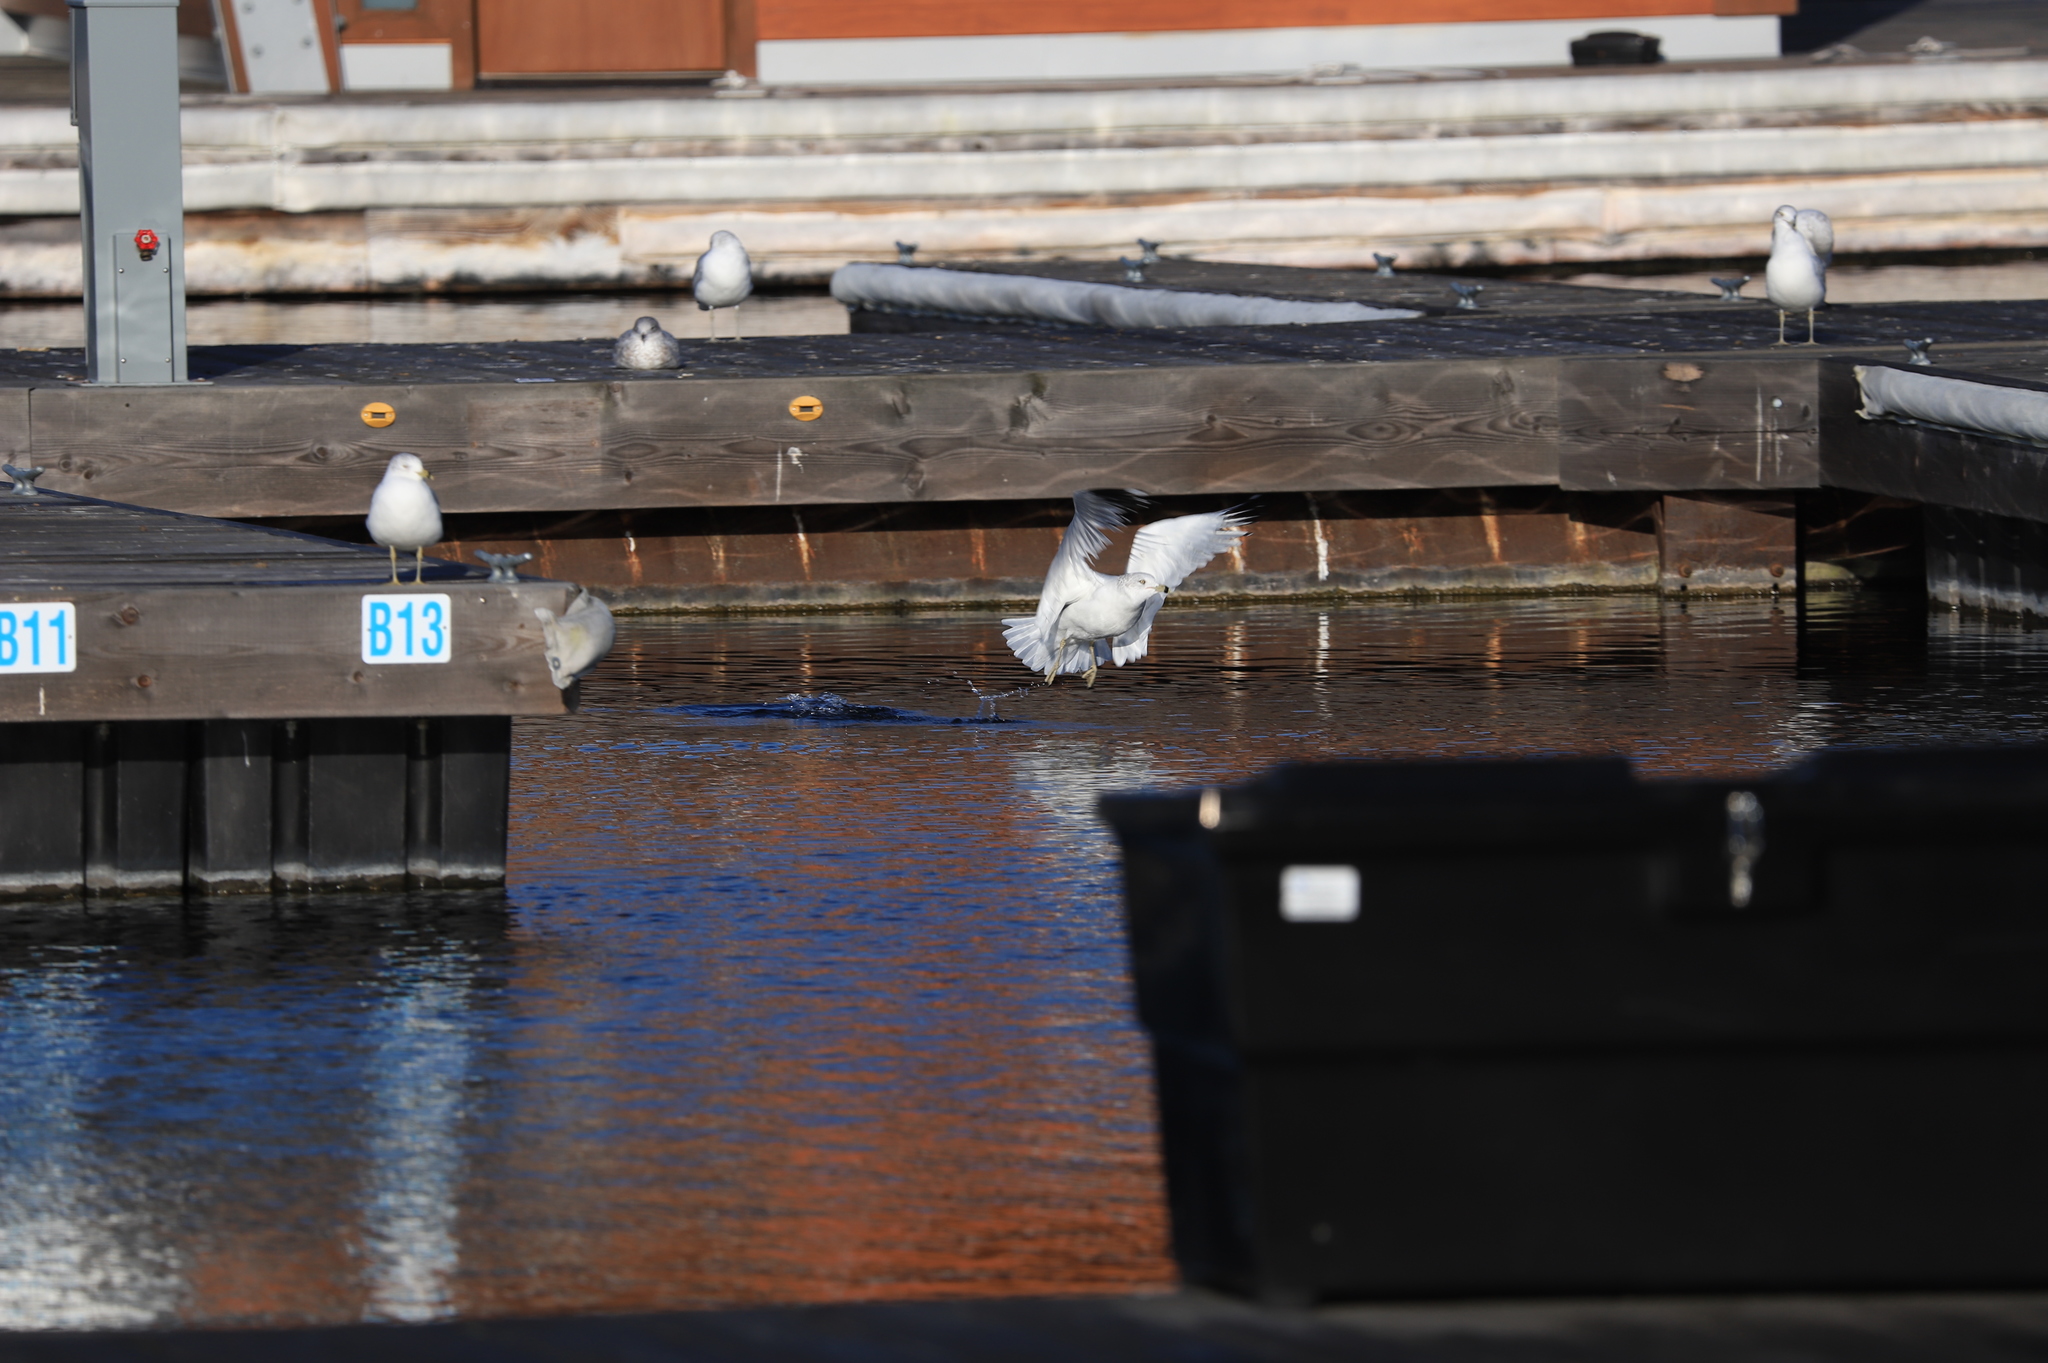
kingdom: Animalia
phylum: Chordata
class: Aves
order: Charadriiformes
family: Laridae
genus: Larus
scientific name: Larus delawarensis
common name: Ring-billed gull
